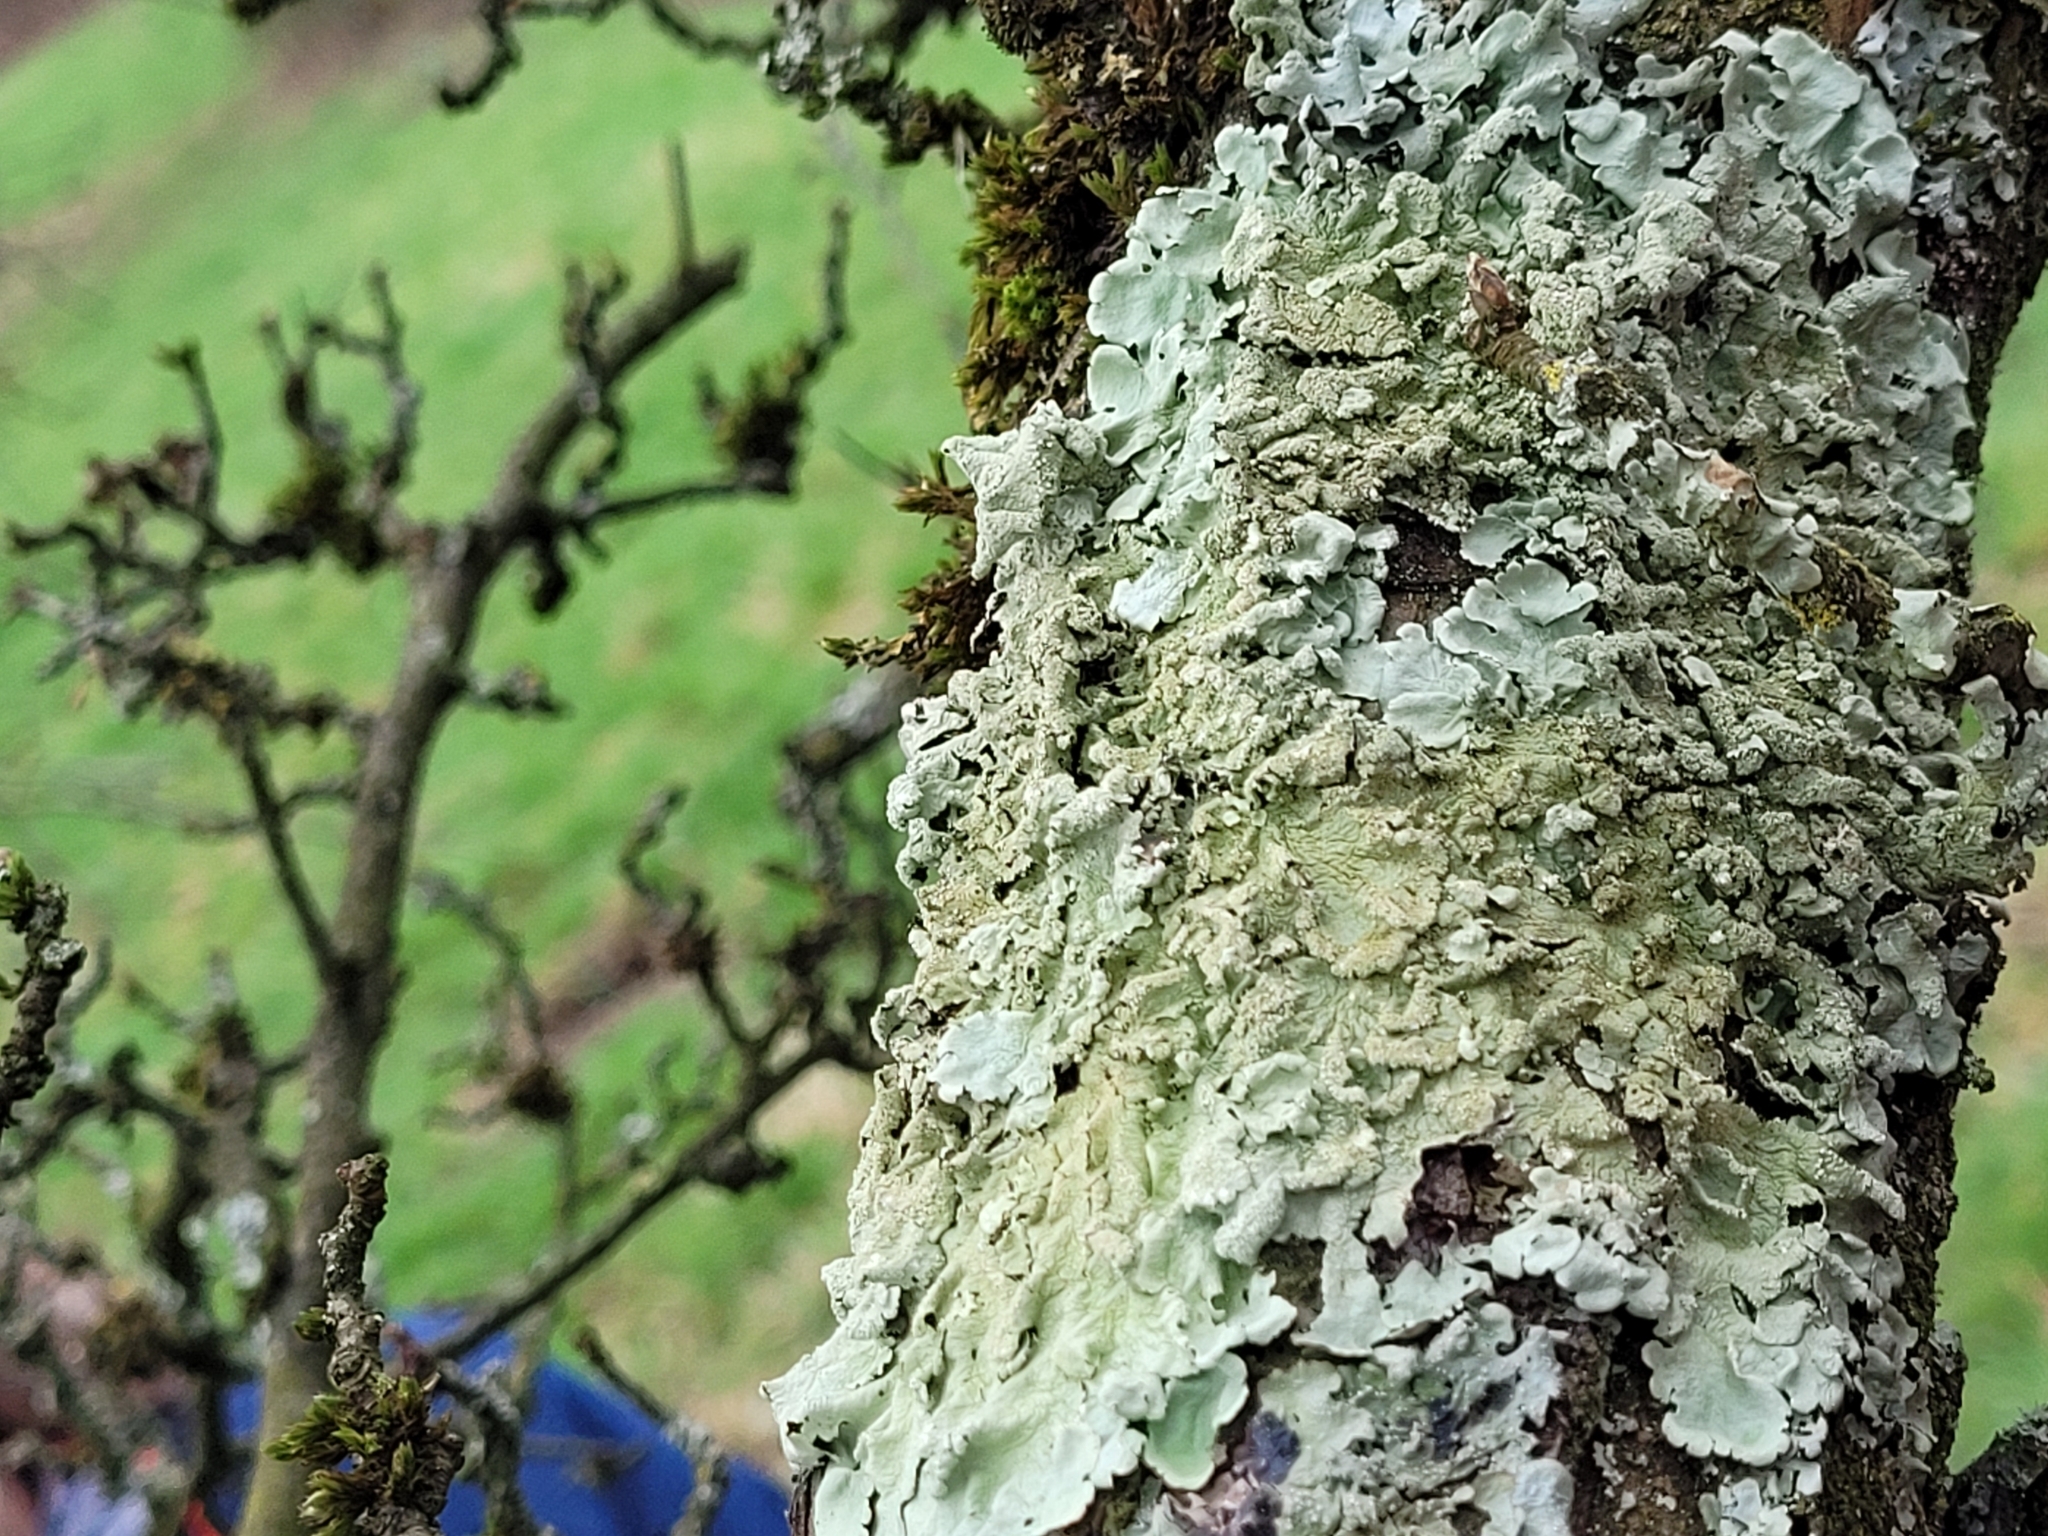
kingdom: Fungi
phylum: Ascomycota
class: Lecanoromycetes
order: Lecanorales
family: Parmeliaceae
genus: Flavoparmelia
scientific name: Flavoparmelia caperata
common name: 40-mile per hour lichen
